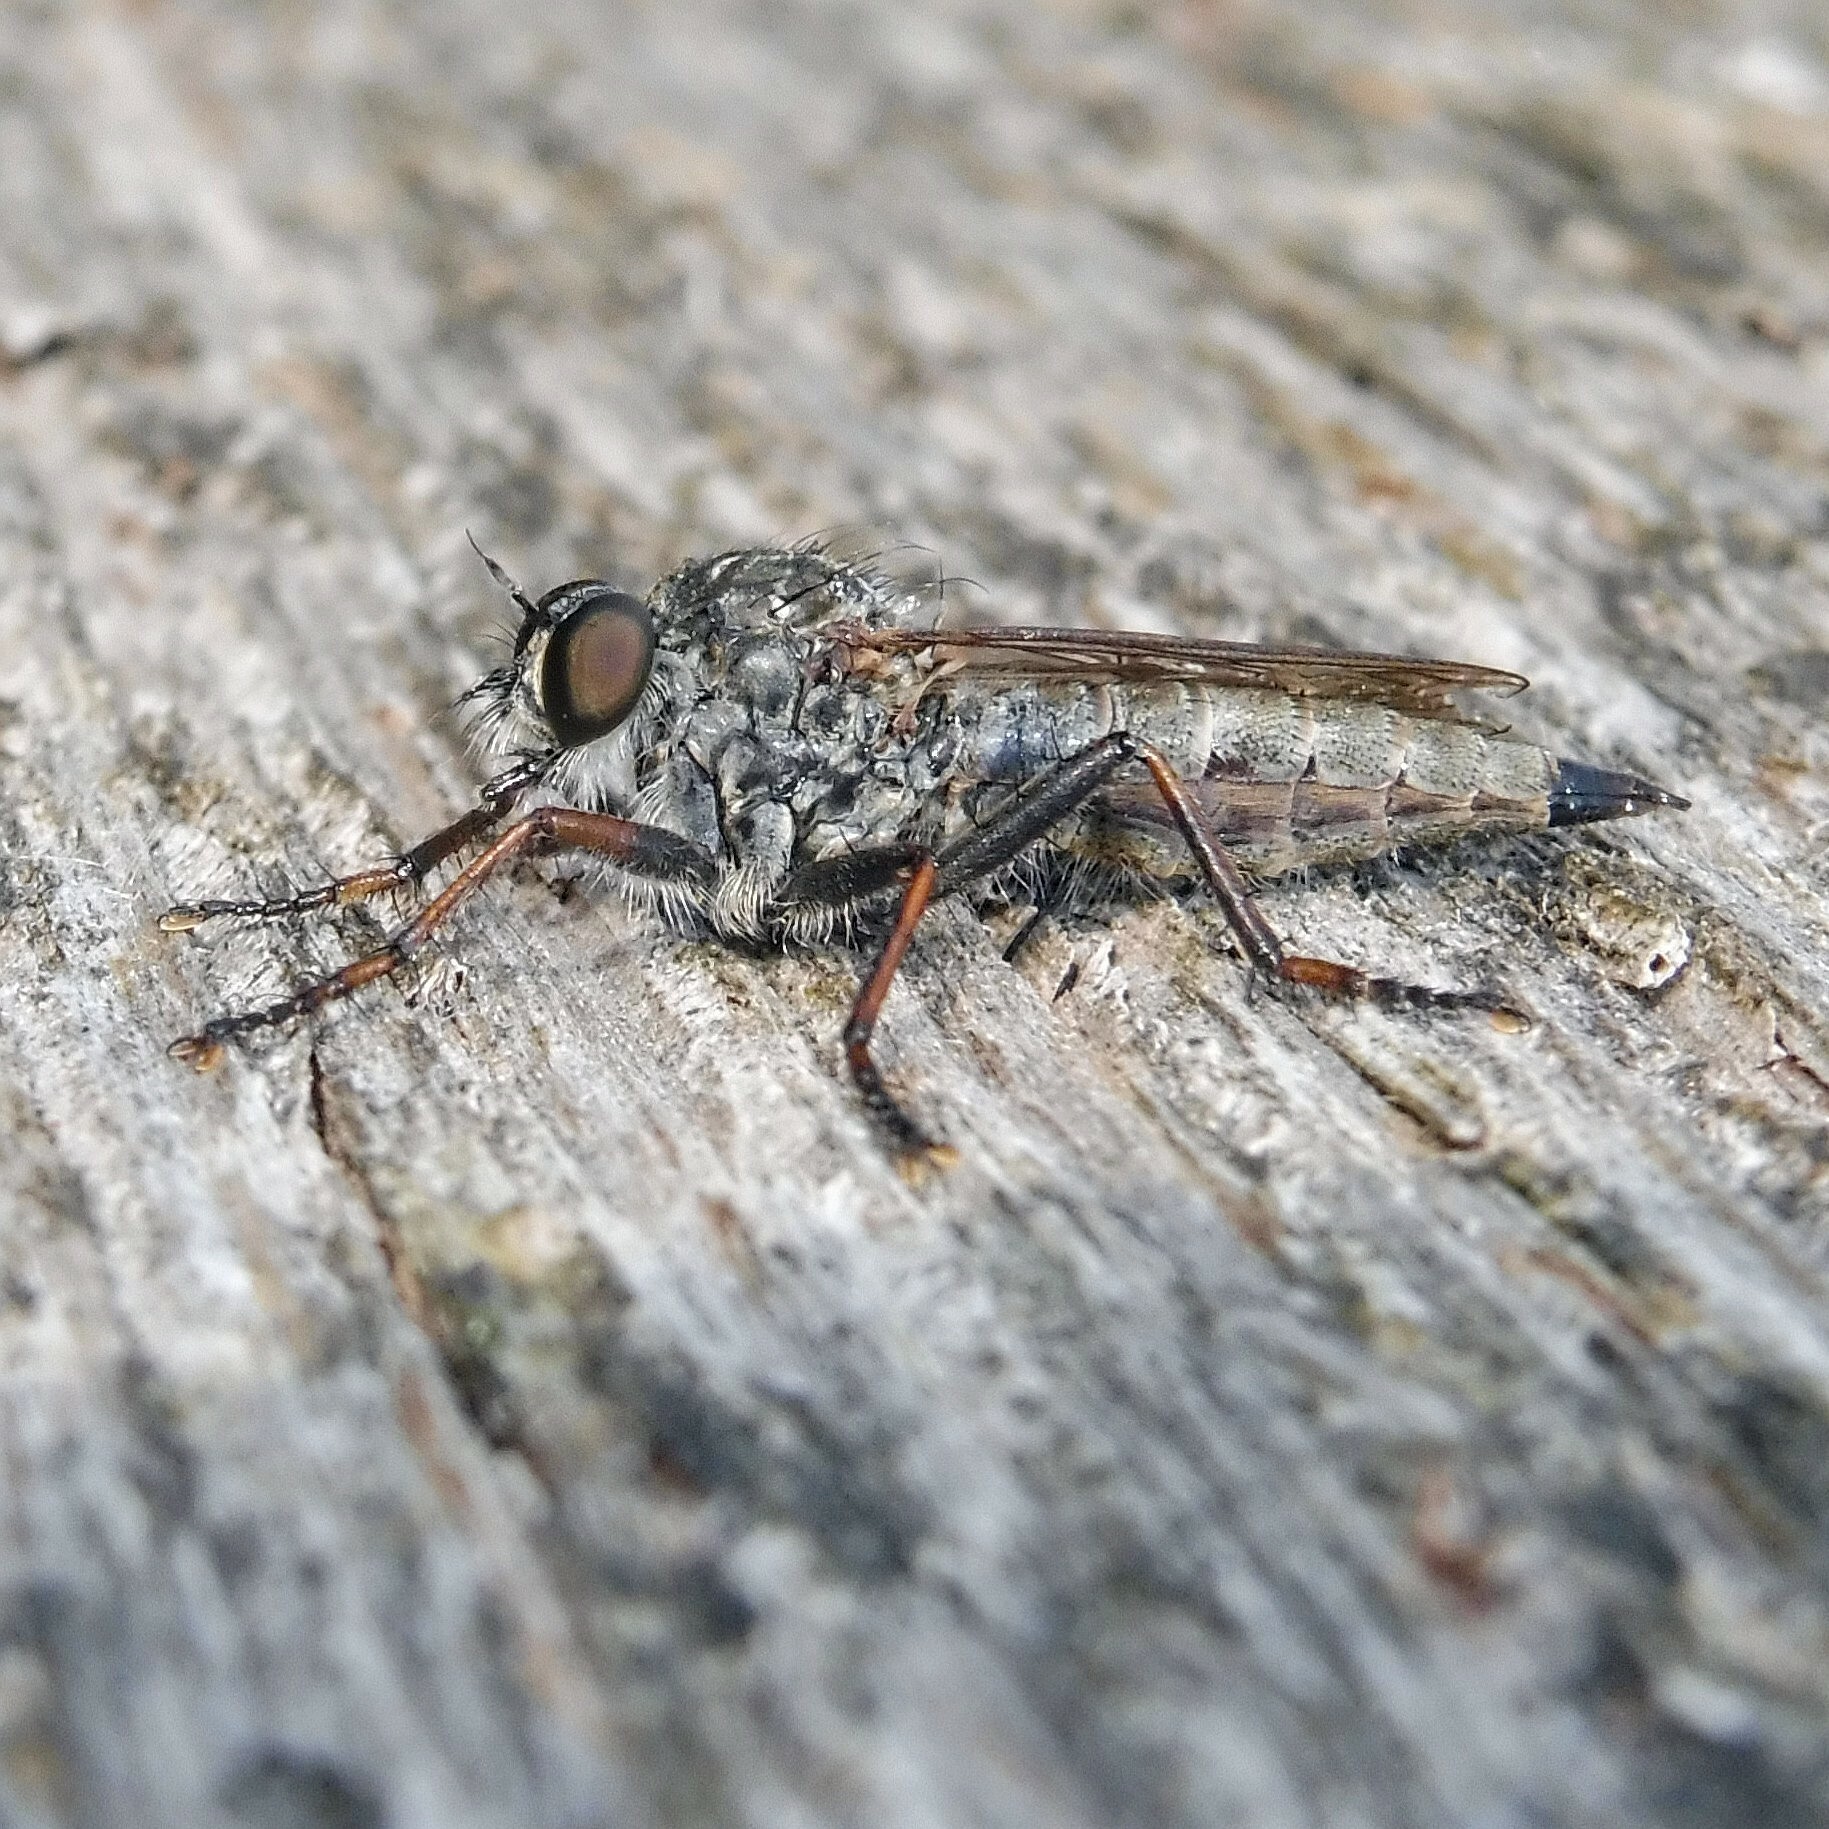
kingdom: Animalia
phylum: Arthropoda
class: Insecta
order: Diptera
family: Asilidae
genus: Machimus
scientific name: Machimus atricapillus
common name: Kite-tailed robberfly
